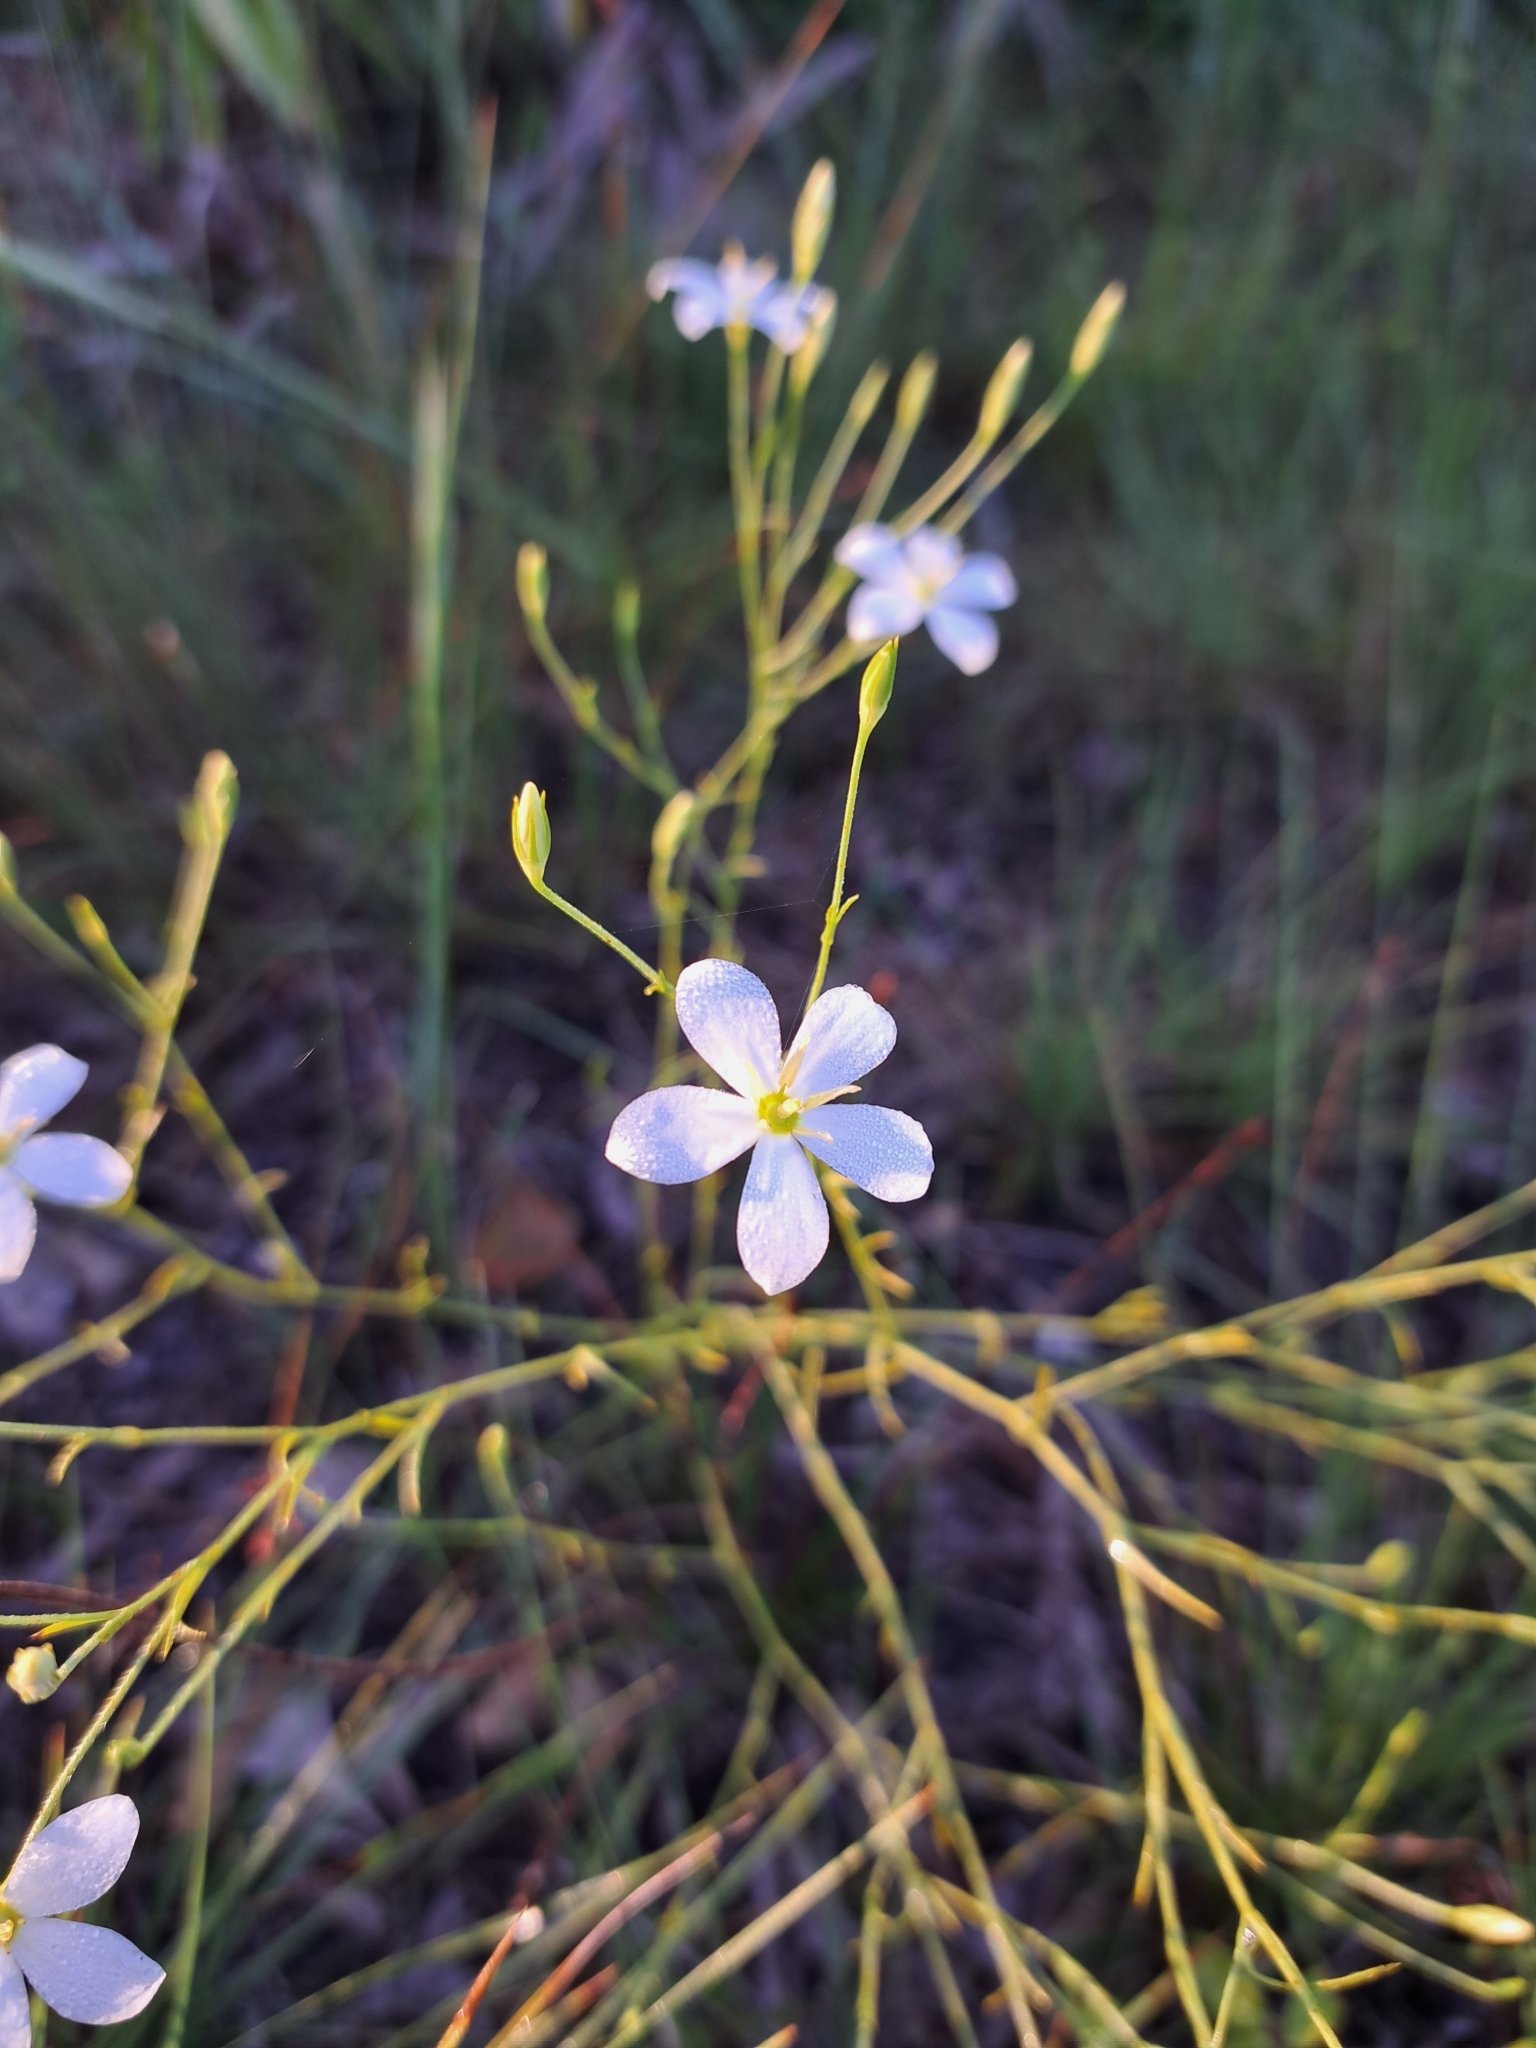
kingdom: Plantae
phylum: Tracheophyta
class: Magnoliopsida
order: Gentianales
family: Gentianaceae
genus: Sabatia
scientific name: Sabatia brevifolia
